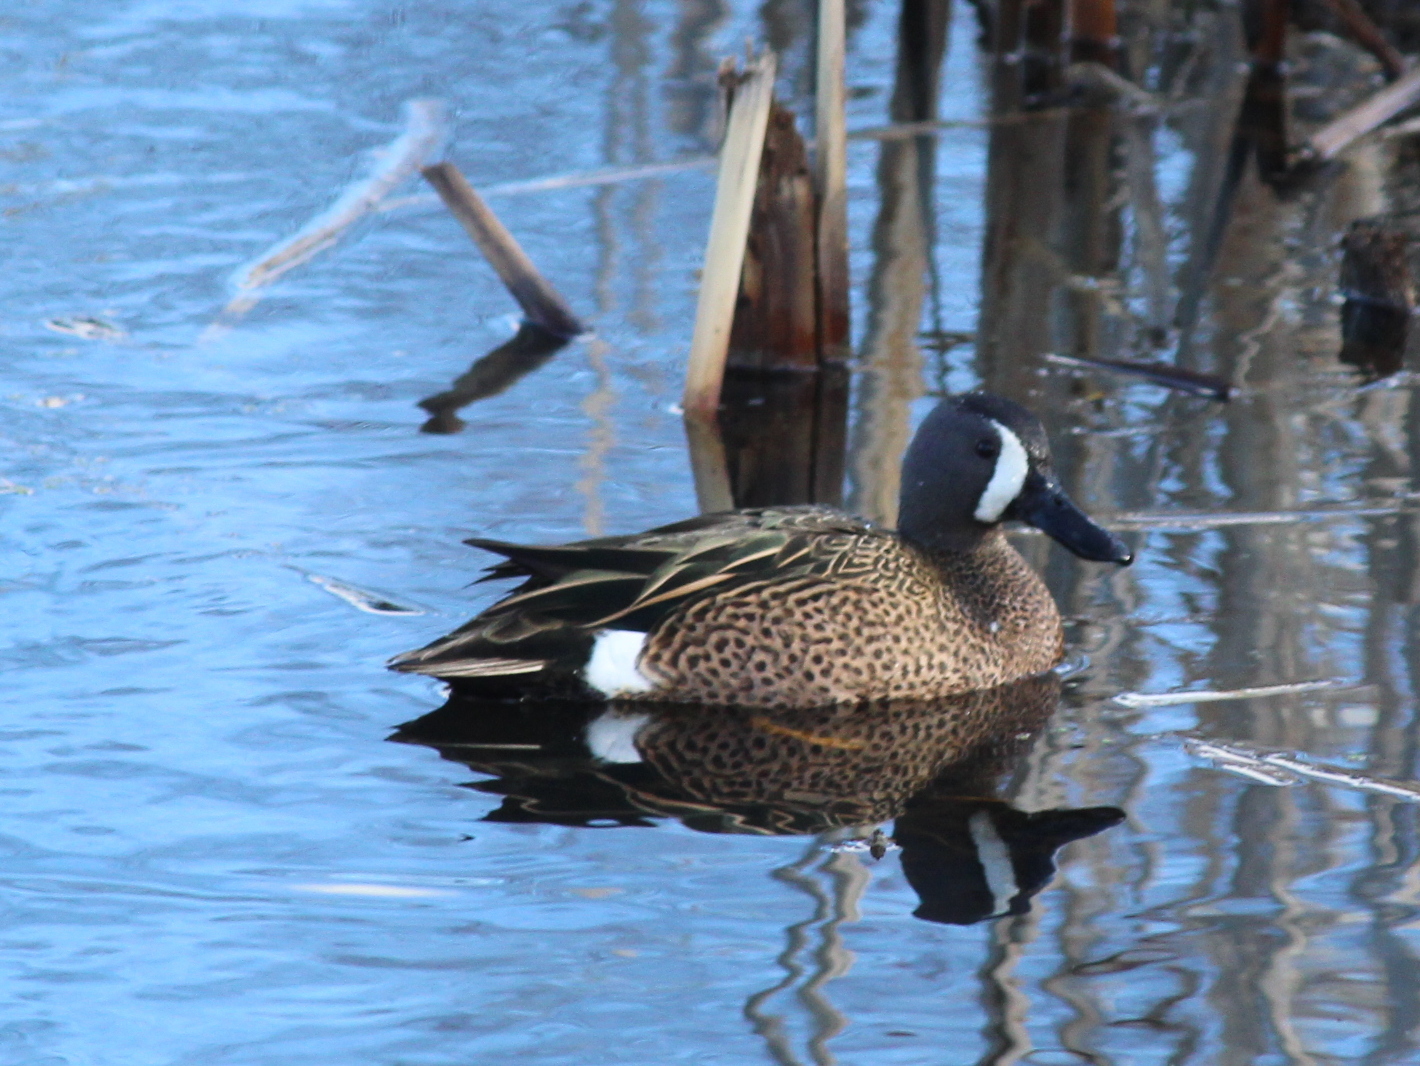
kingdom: Animalia
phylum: Chordata
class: Aves
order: Anseriformes
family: Anatidae
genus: Spatula
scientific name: Spatula discors
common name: Blue-winged teal
